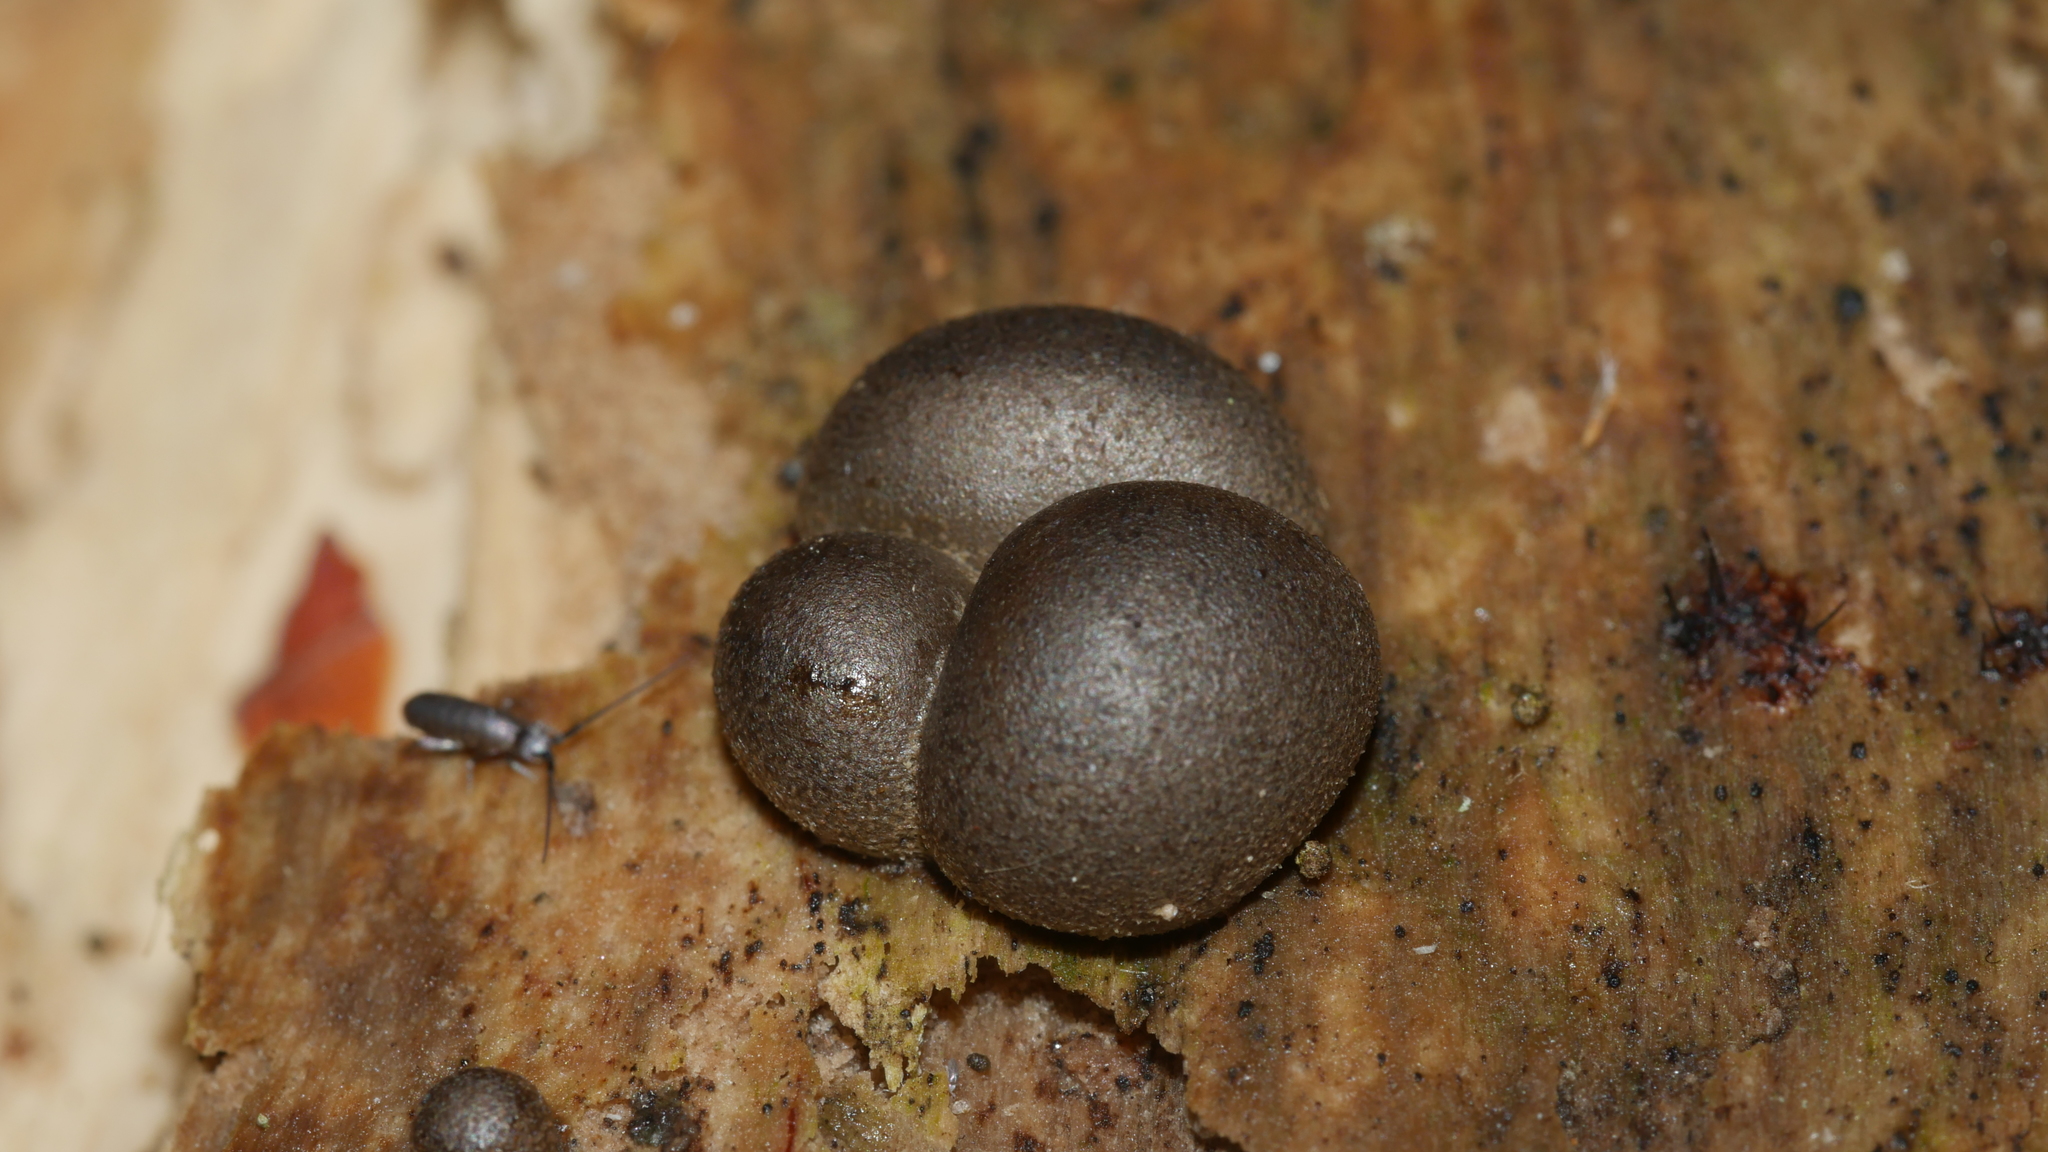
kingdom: Protozoa
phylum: Mycetozoa
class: Myxomycetes
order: Cribrariales
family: Tubiferaceae
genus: Lycogala
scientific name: Lycogala epidendrum
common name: Wolf's milk
